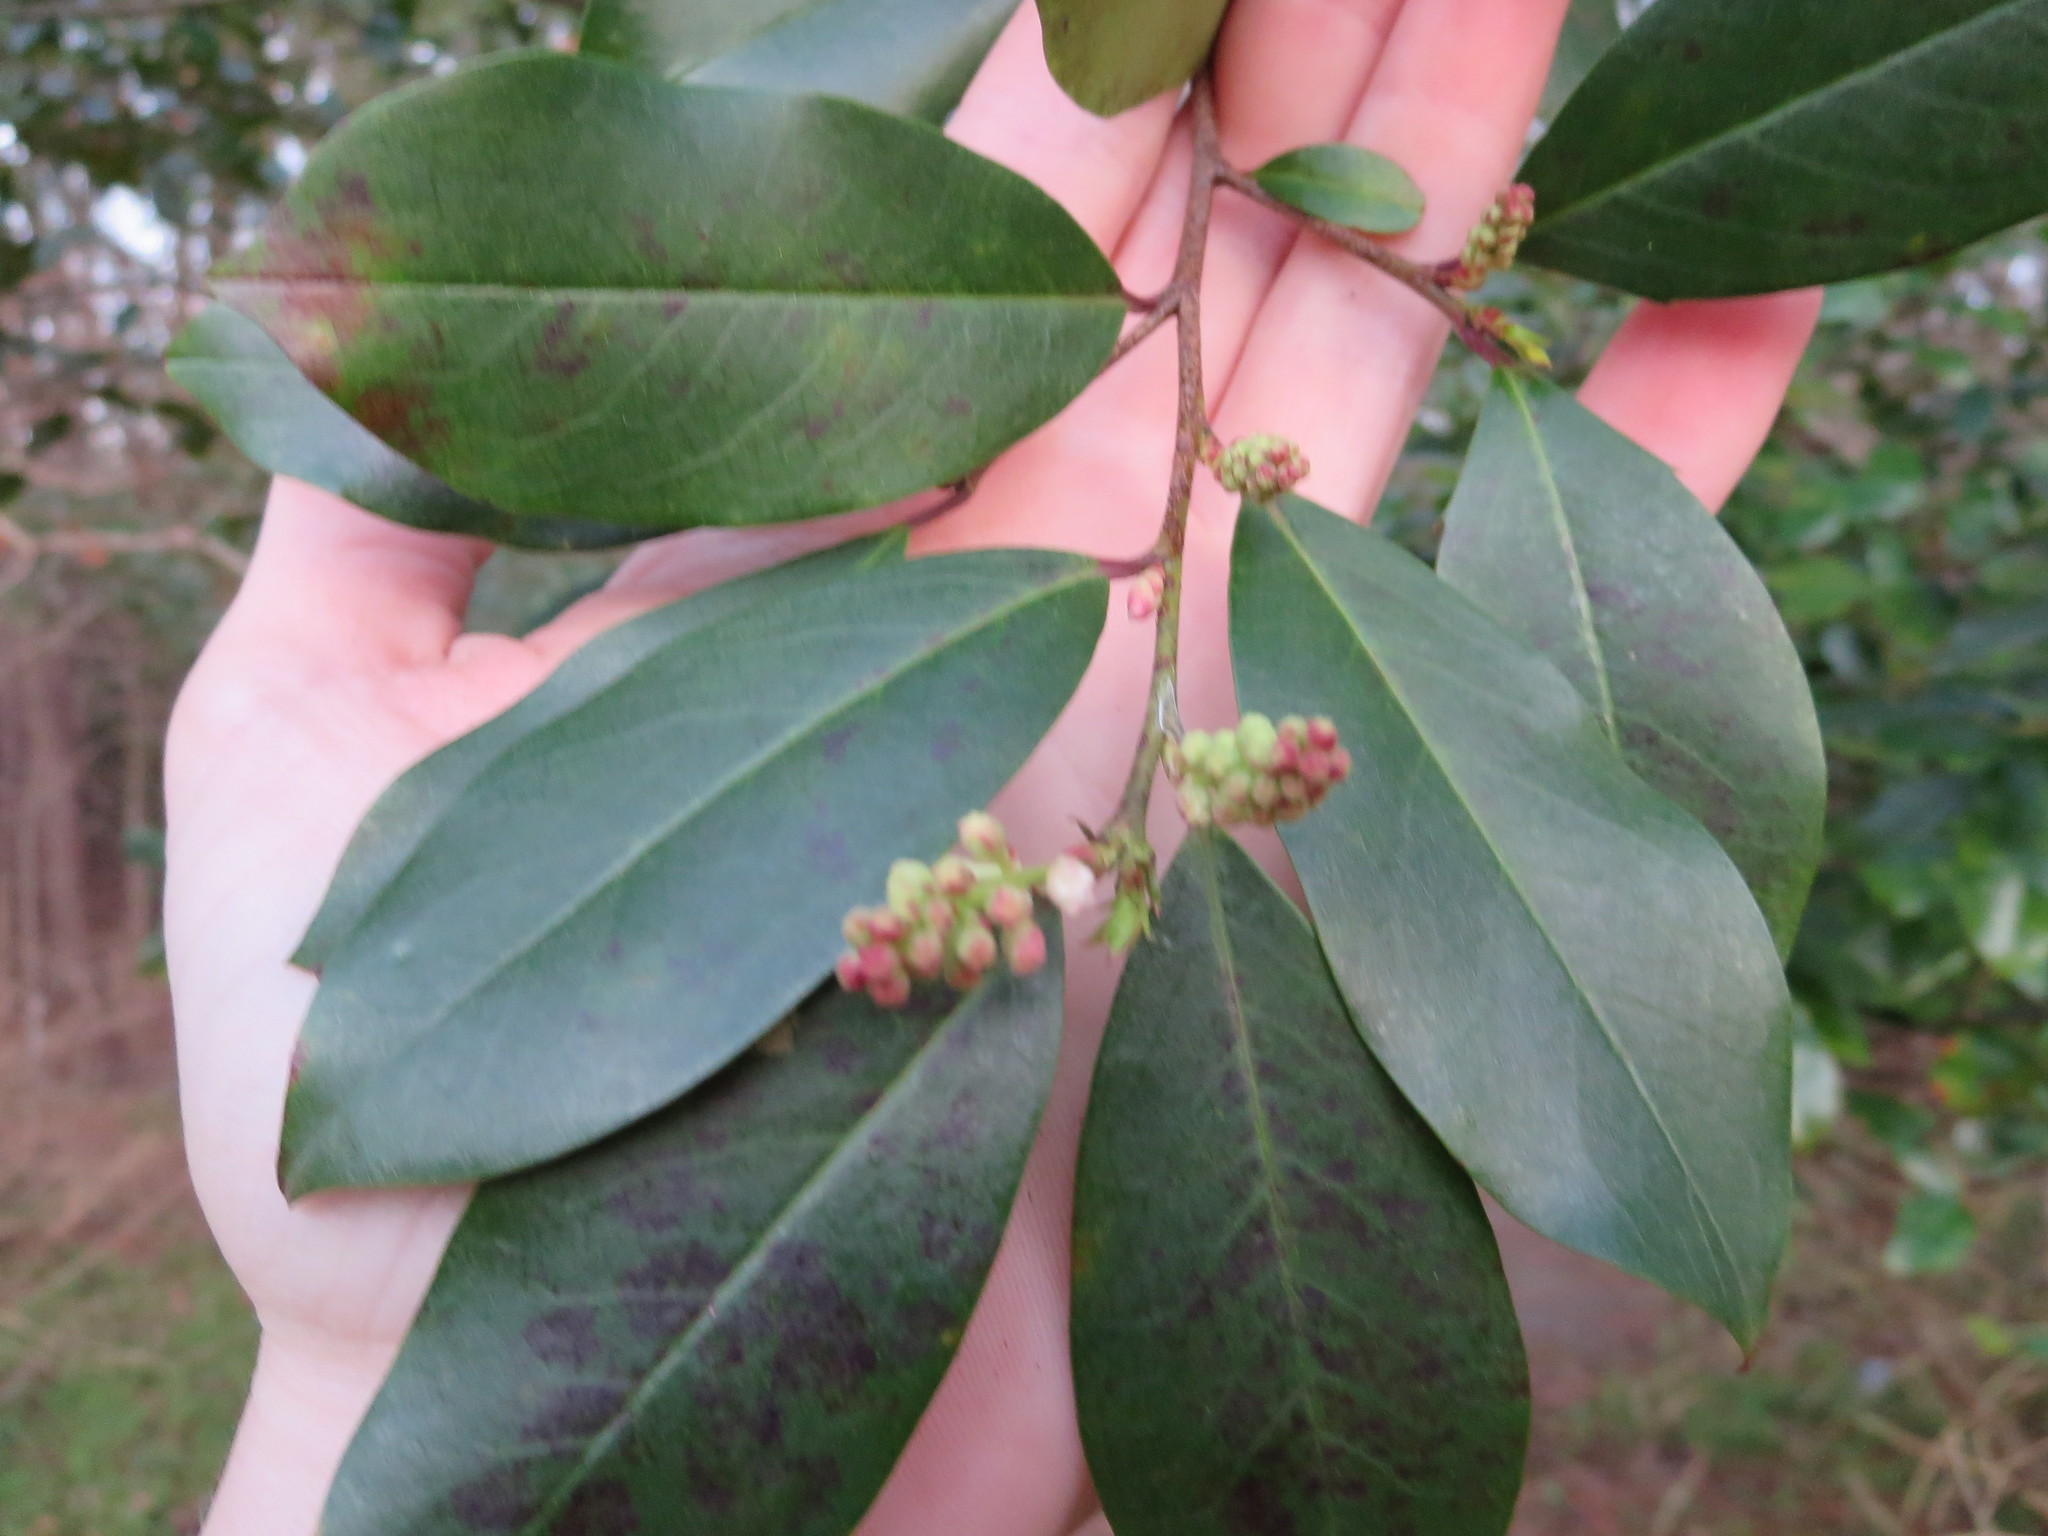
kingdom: Plantae
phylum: Tracheophyta
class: Magnoliopsida
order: Rosales
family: Rosaceae
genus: Prunus
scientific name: Prunus caroliniana
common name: Carolina laurel cherry
